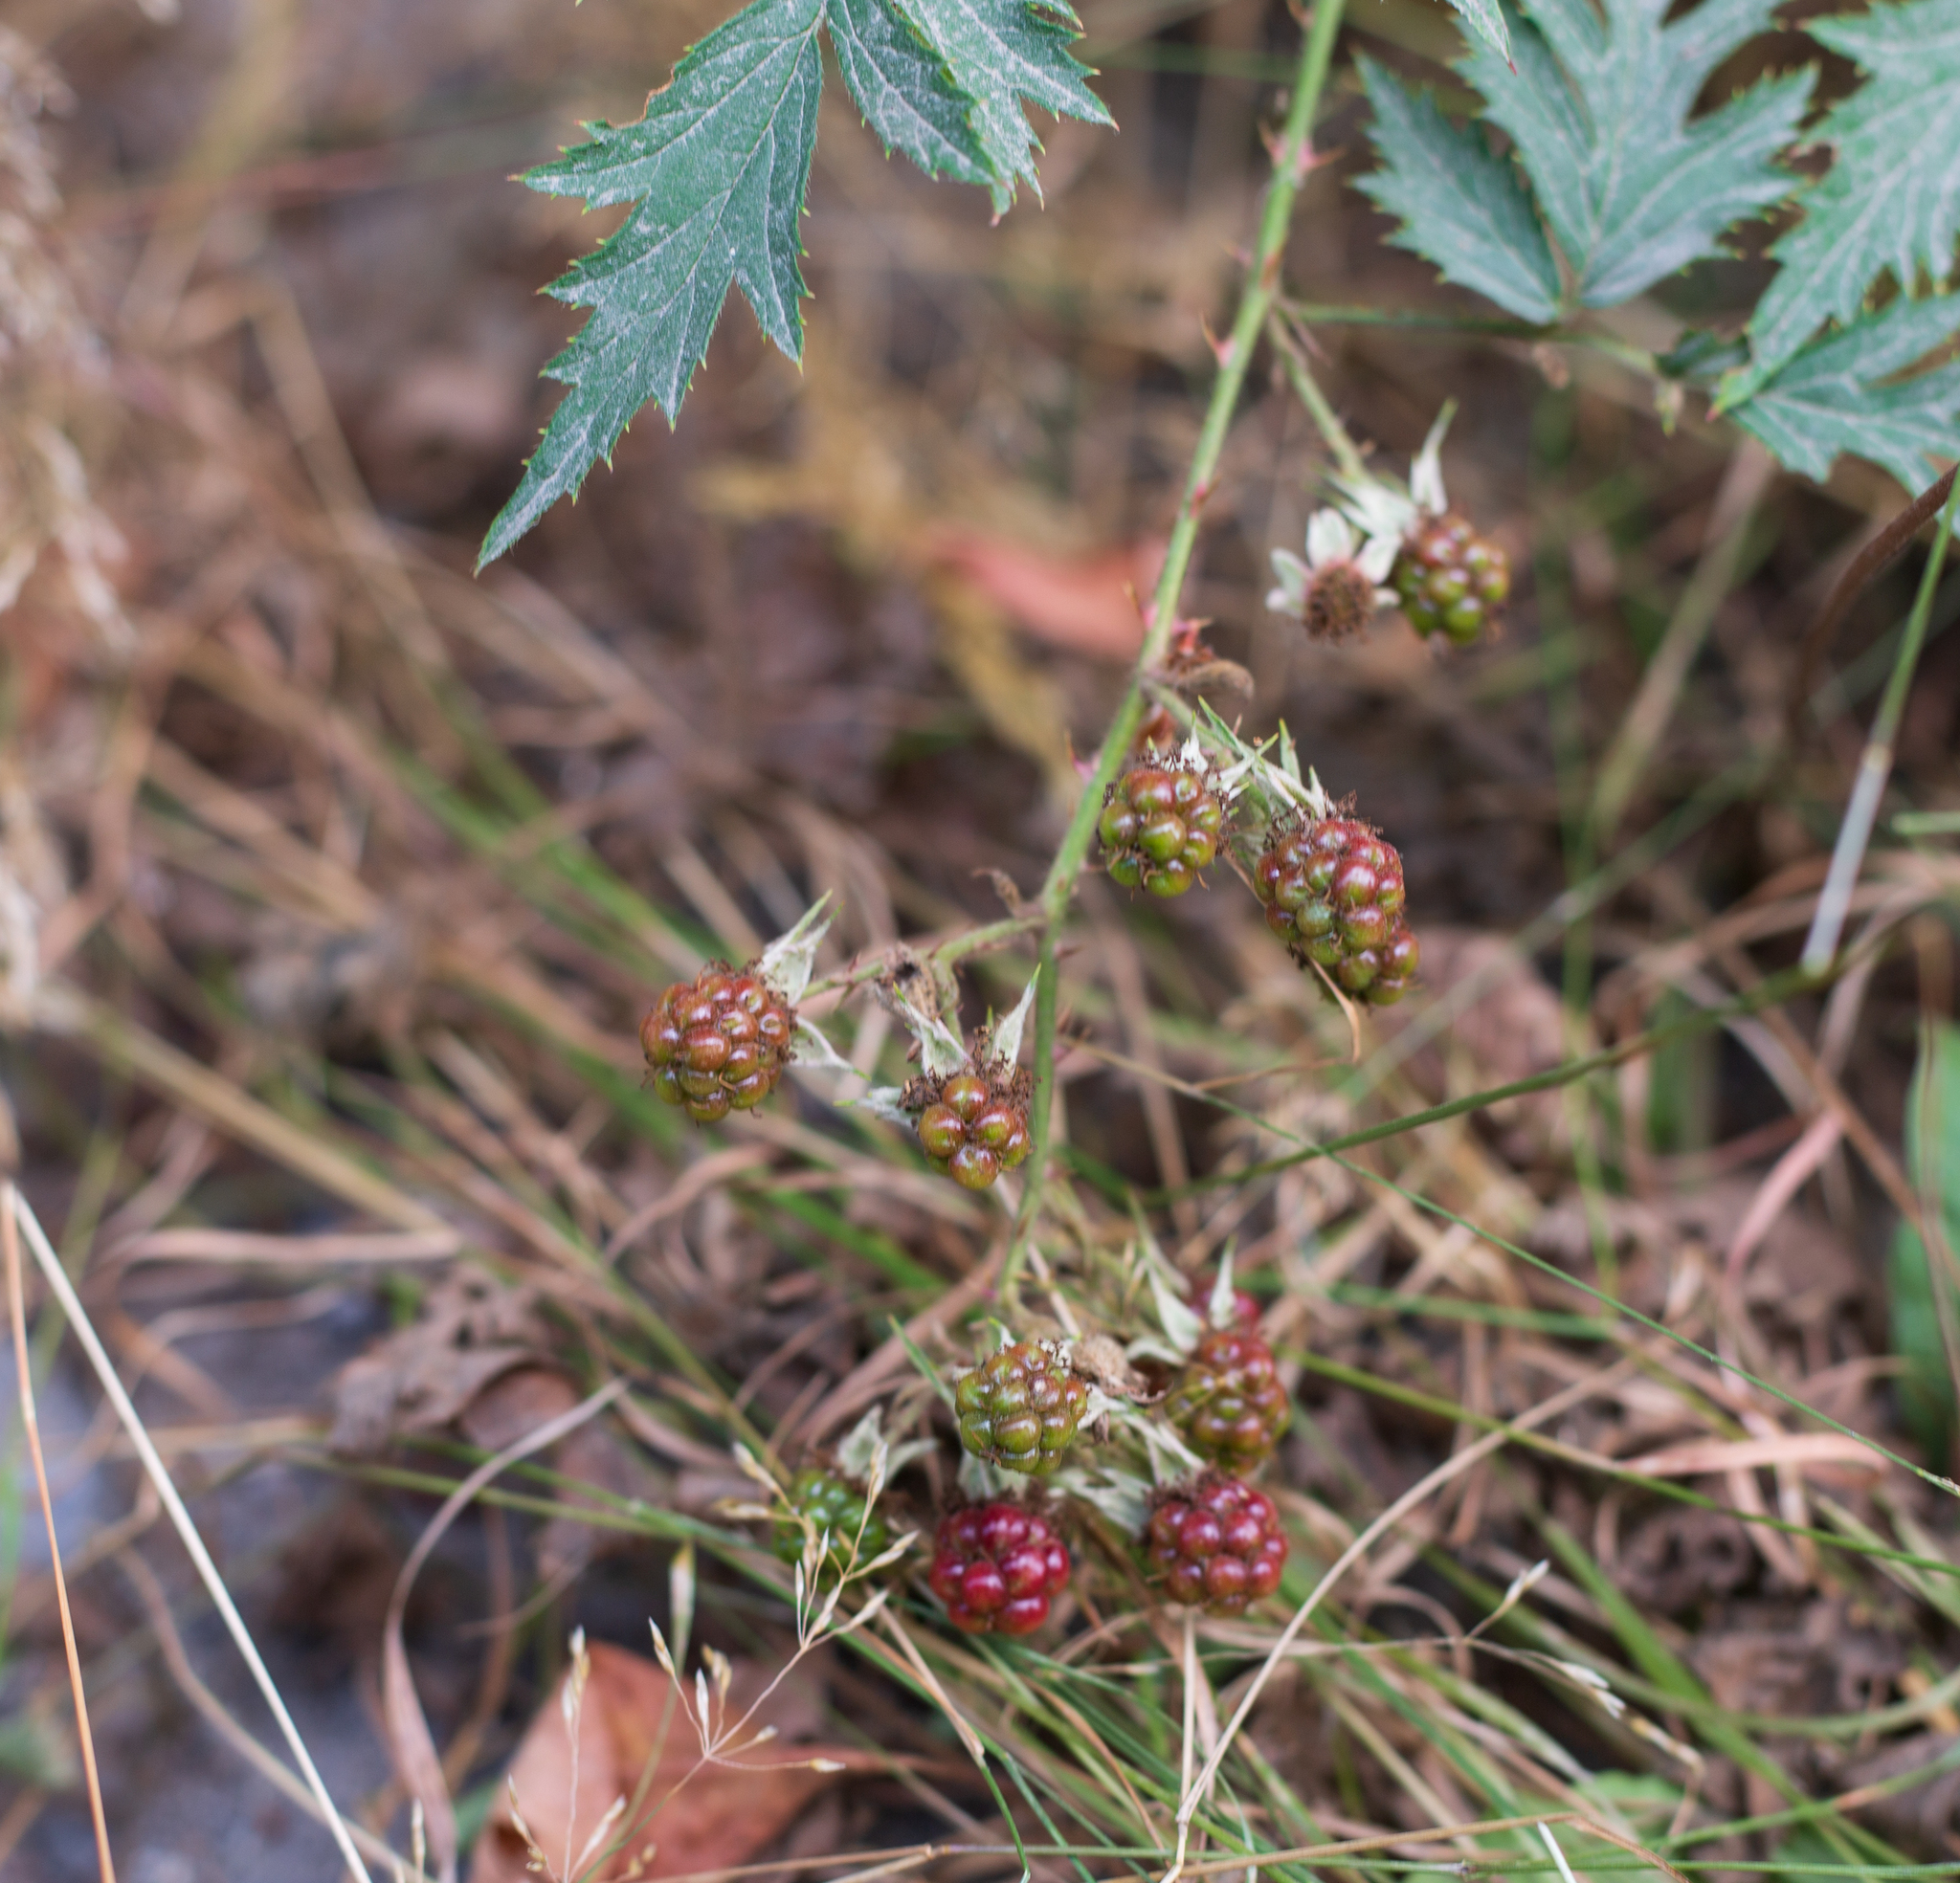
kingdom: Plantae
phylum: Tracheophyta
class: Magnoliopsida
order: Rosales
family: Rosaceae
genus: Rubus
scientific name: Rubus laciniatus
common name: Evergreen blackberry
